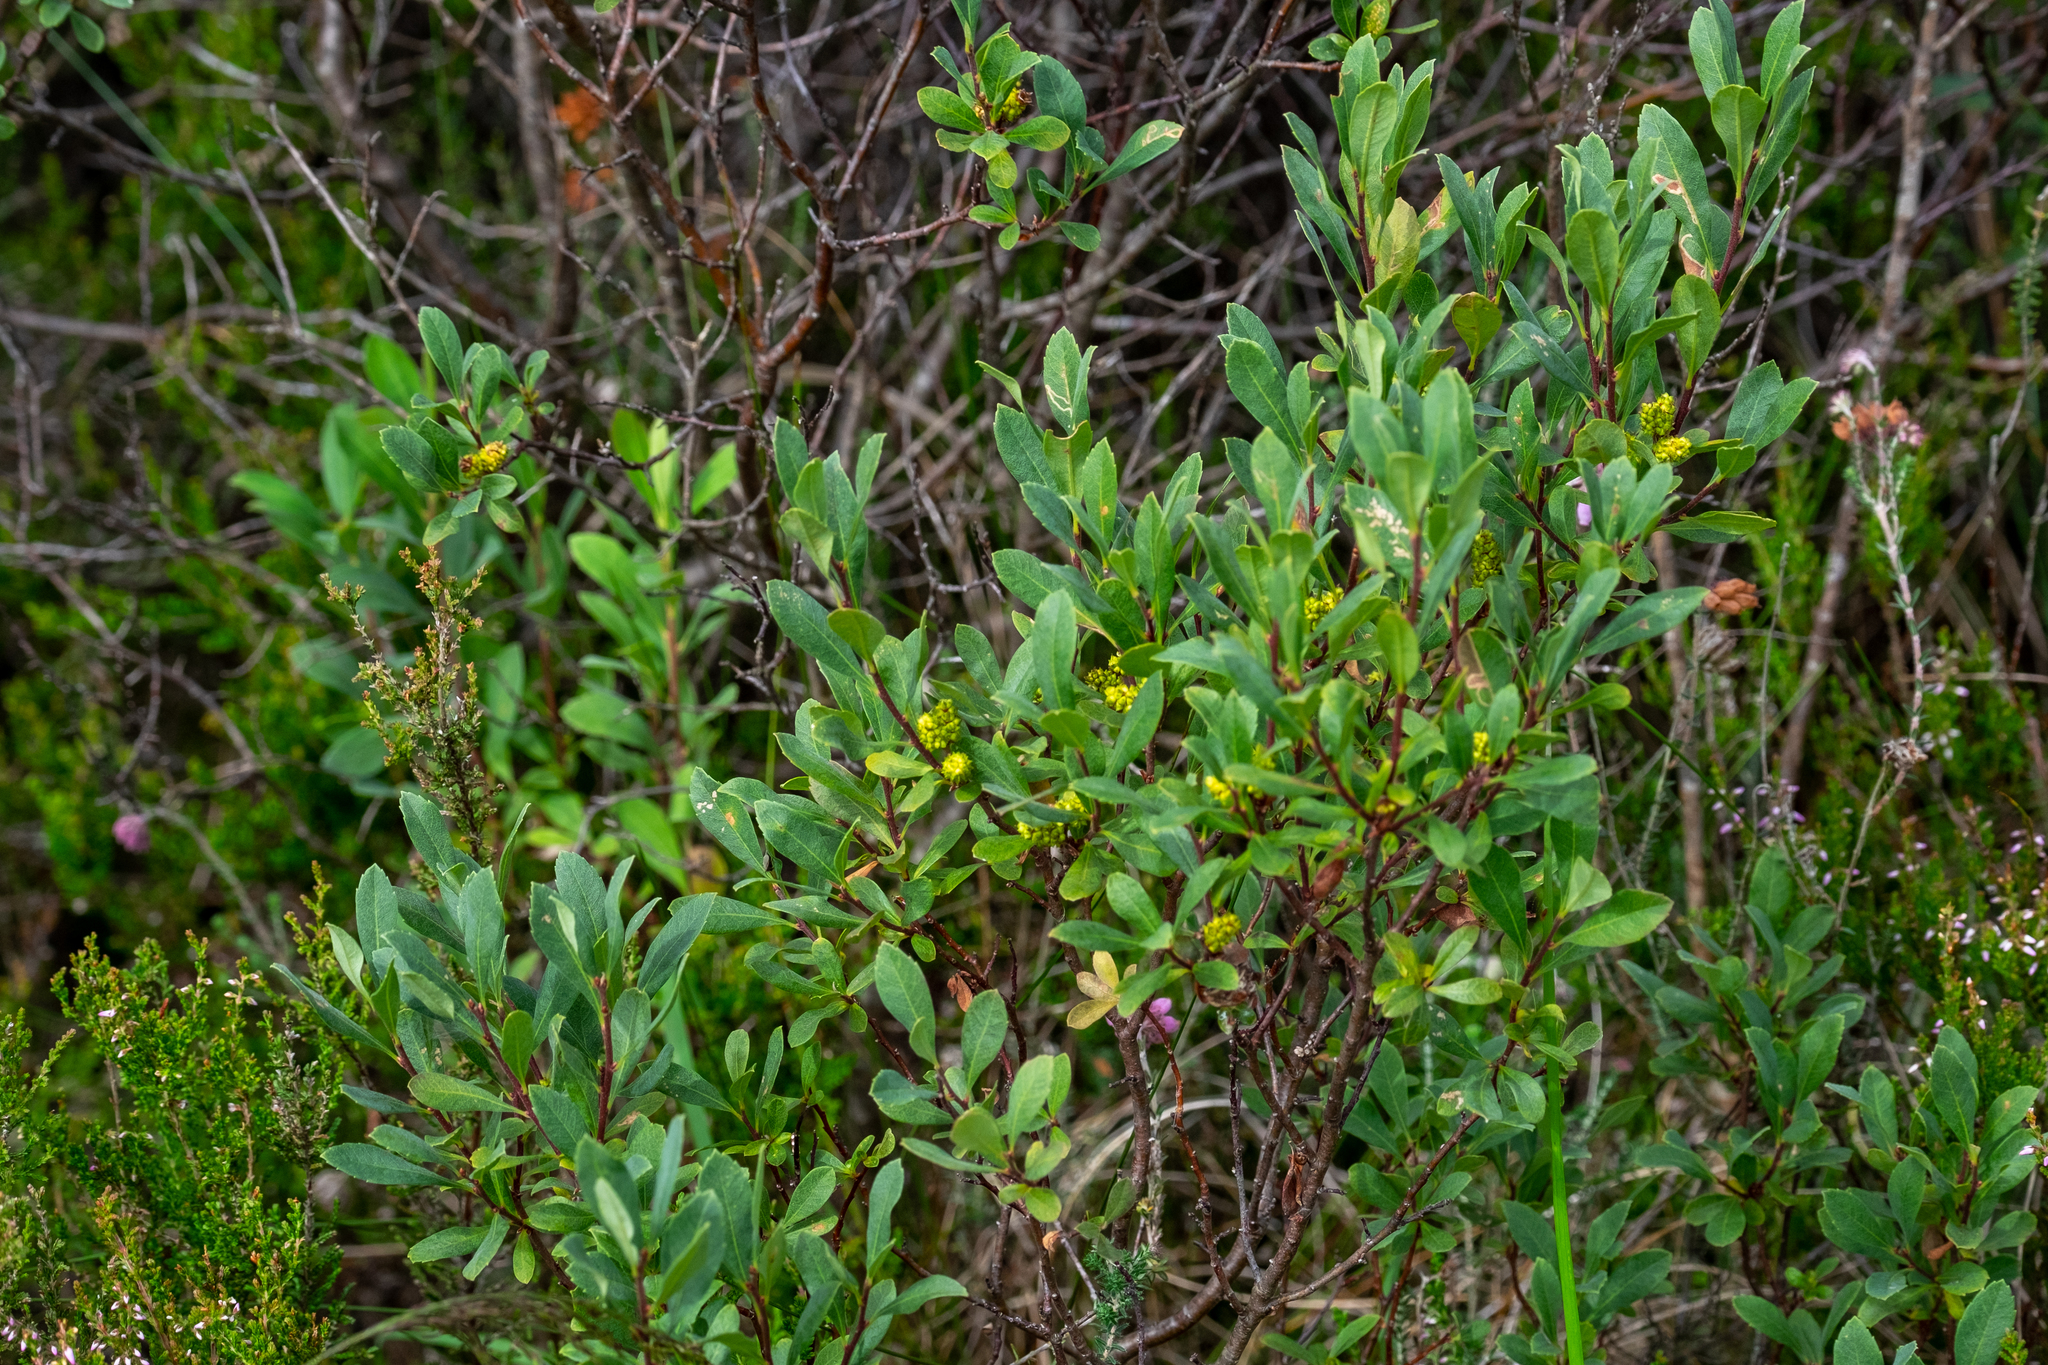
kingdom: Plantae
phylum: Tracheophyta
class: Magnoliopsida
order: Fagales
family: Myricaceae
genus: Myrica
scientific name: Myrica gale
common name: Sweet gale
